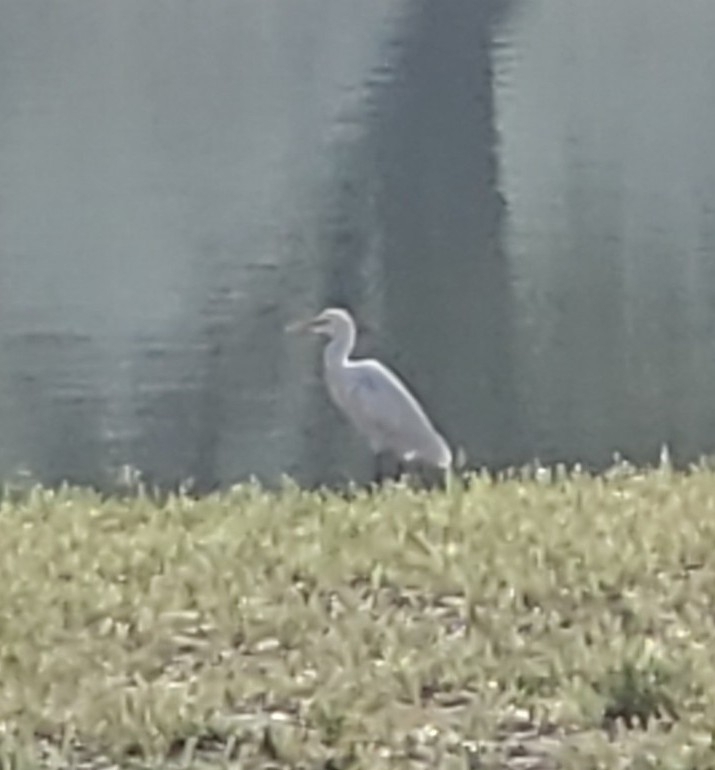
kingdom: Animalia
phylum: Chordata
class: Aves
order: Pelecaniformes
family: Ardeidae
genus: Bubulcus
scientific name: Bubulcus ibis
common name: Cattle egret
